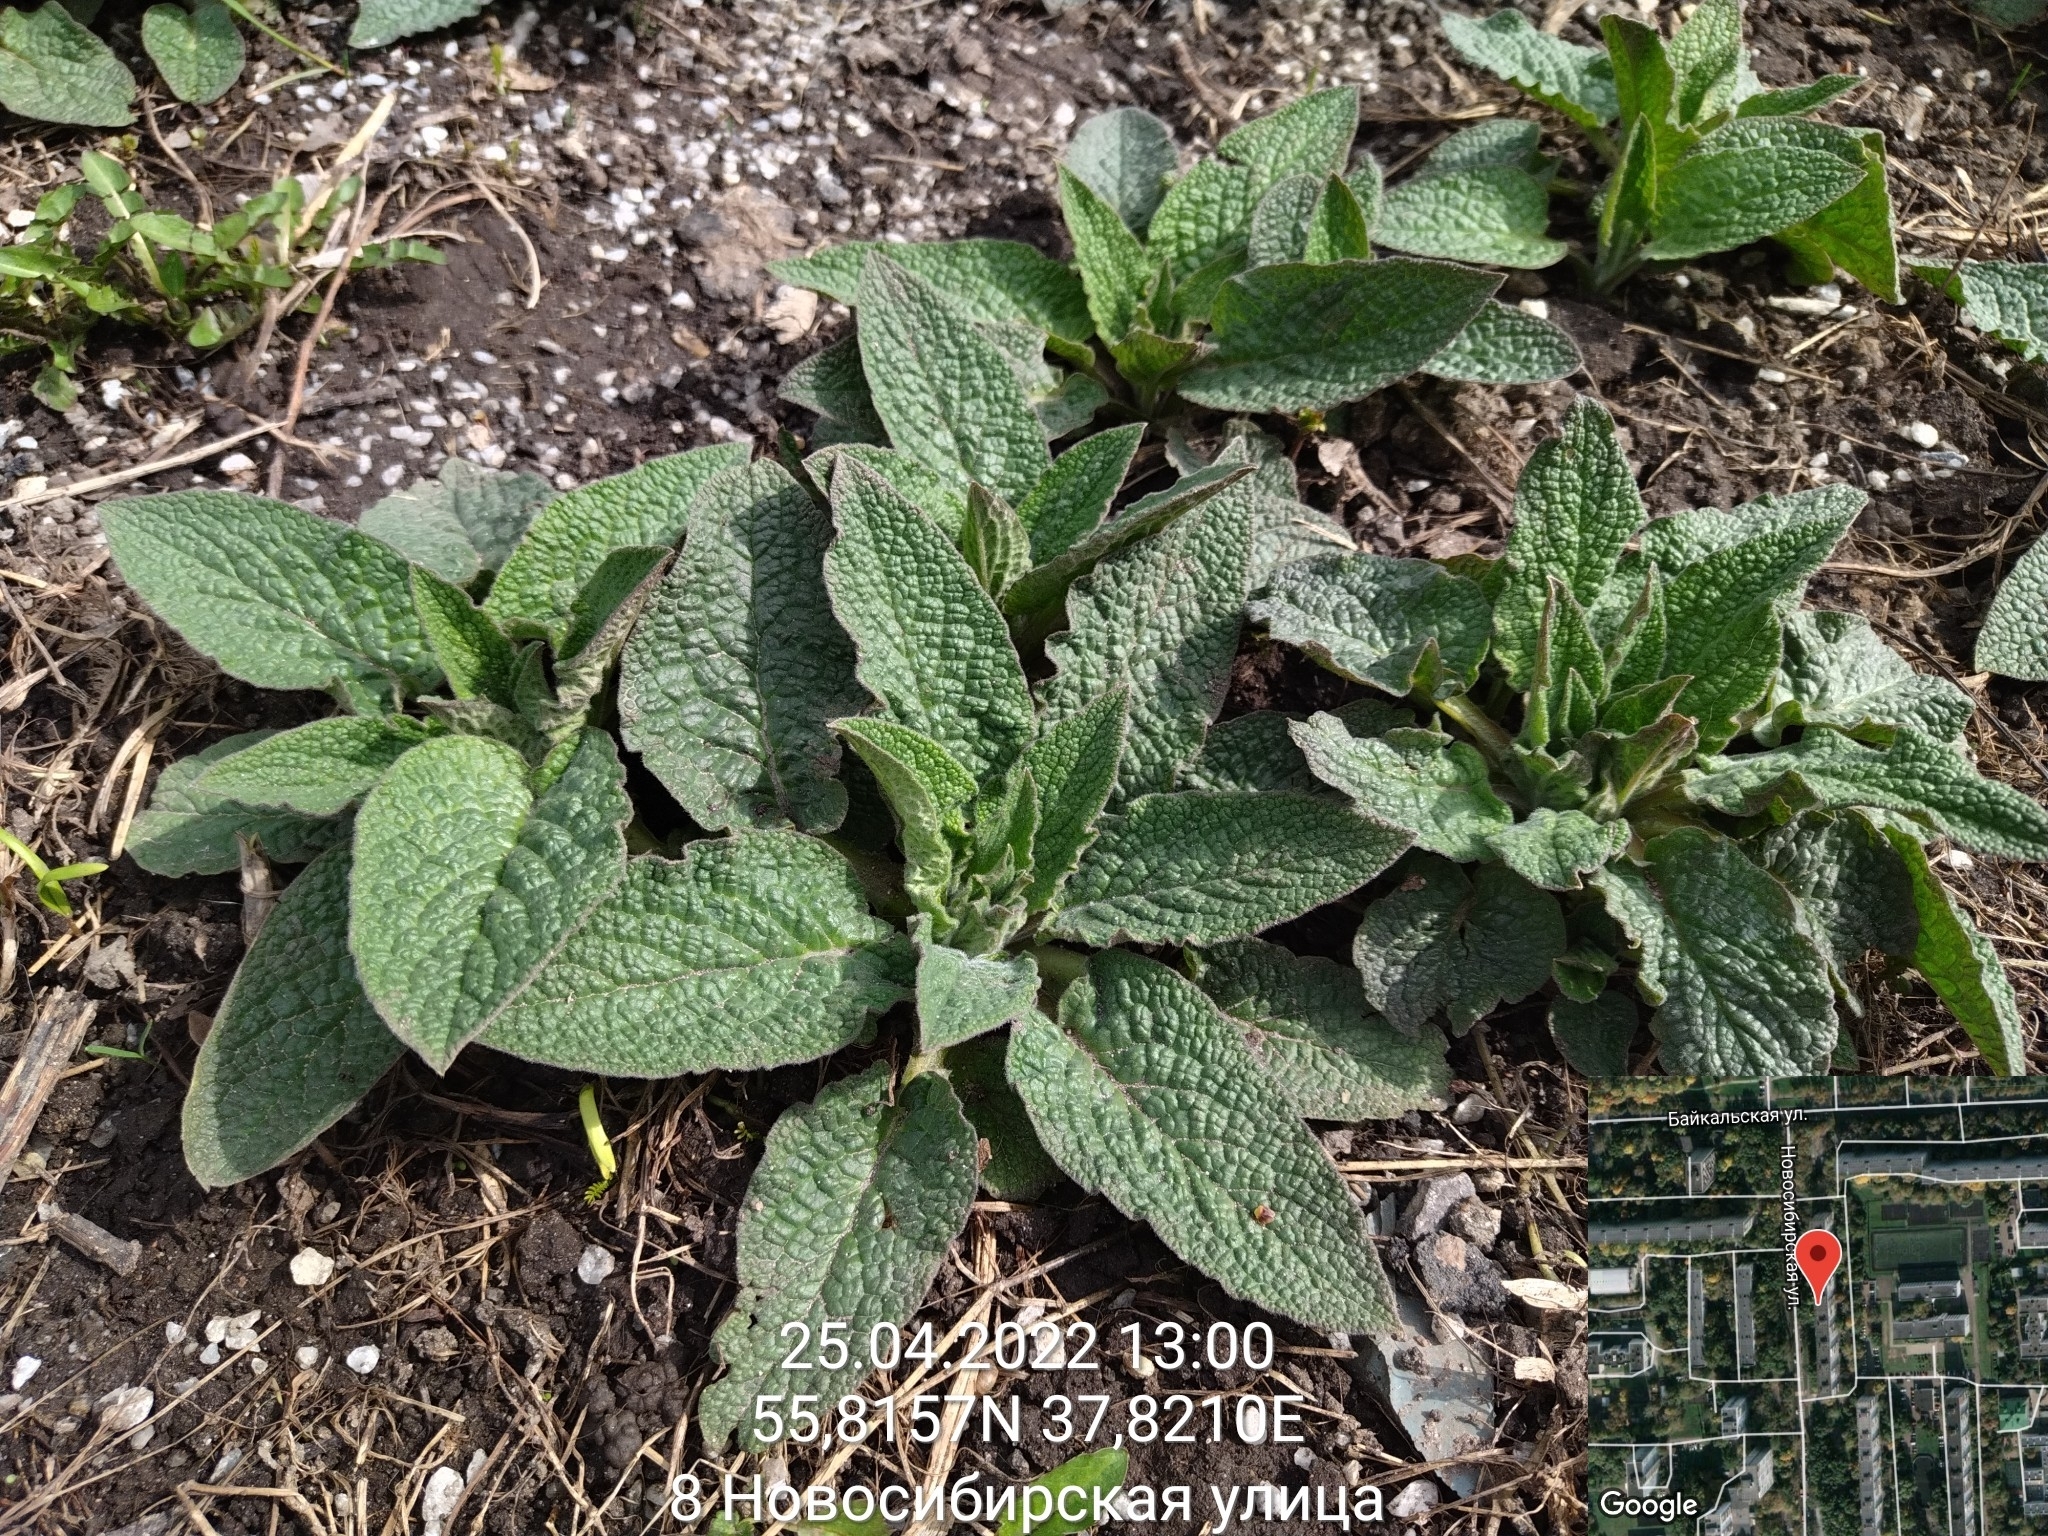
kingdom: Plantae
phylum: Tracheophyta
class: Magnoliopsida
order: Boraginales
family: Boraginaceae
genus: Symphytum
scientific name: Symphytum
